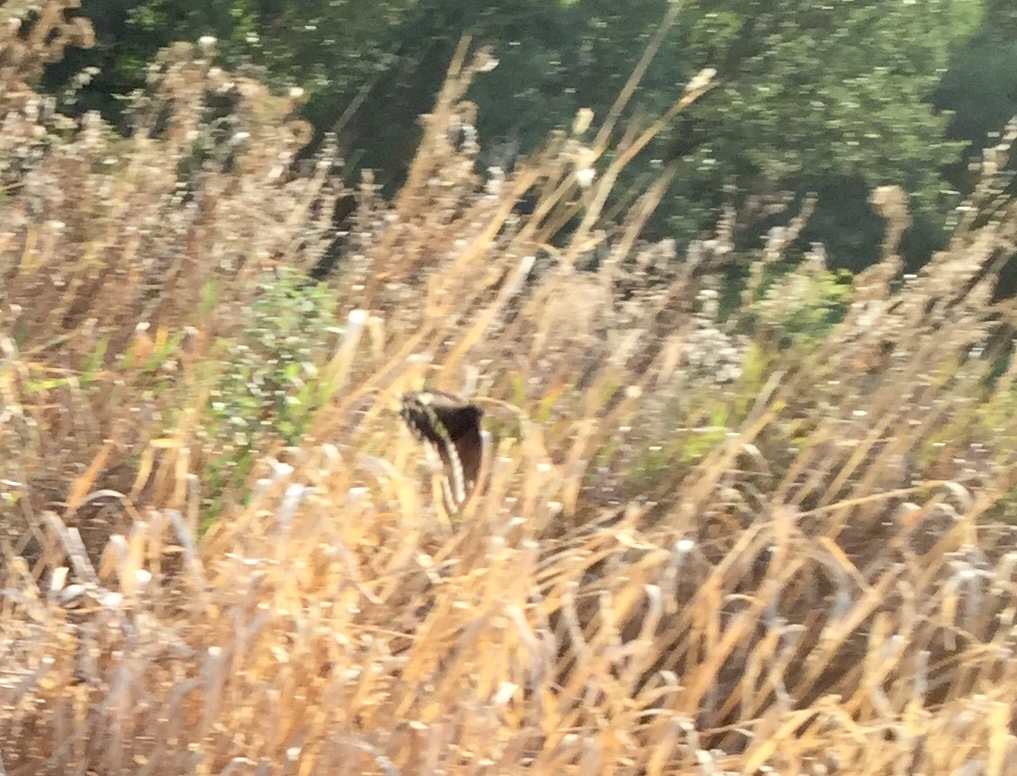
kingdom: Animalia
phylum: Arthropoda
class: Insecta
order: Lepidoptera
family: Papilionidae
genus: Papilio
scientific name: Papilio polyxenes
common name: Black swallowtail
